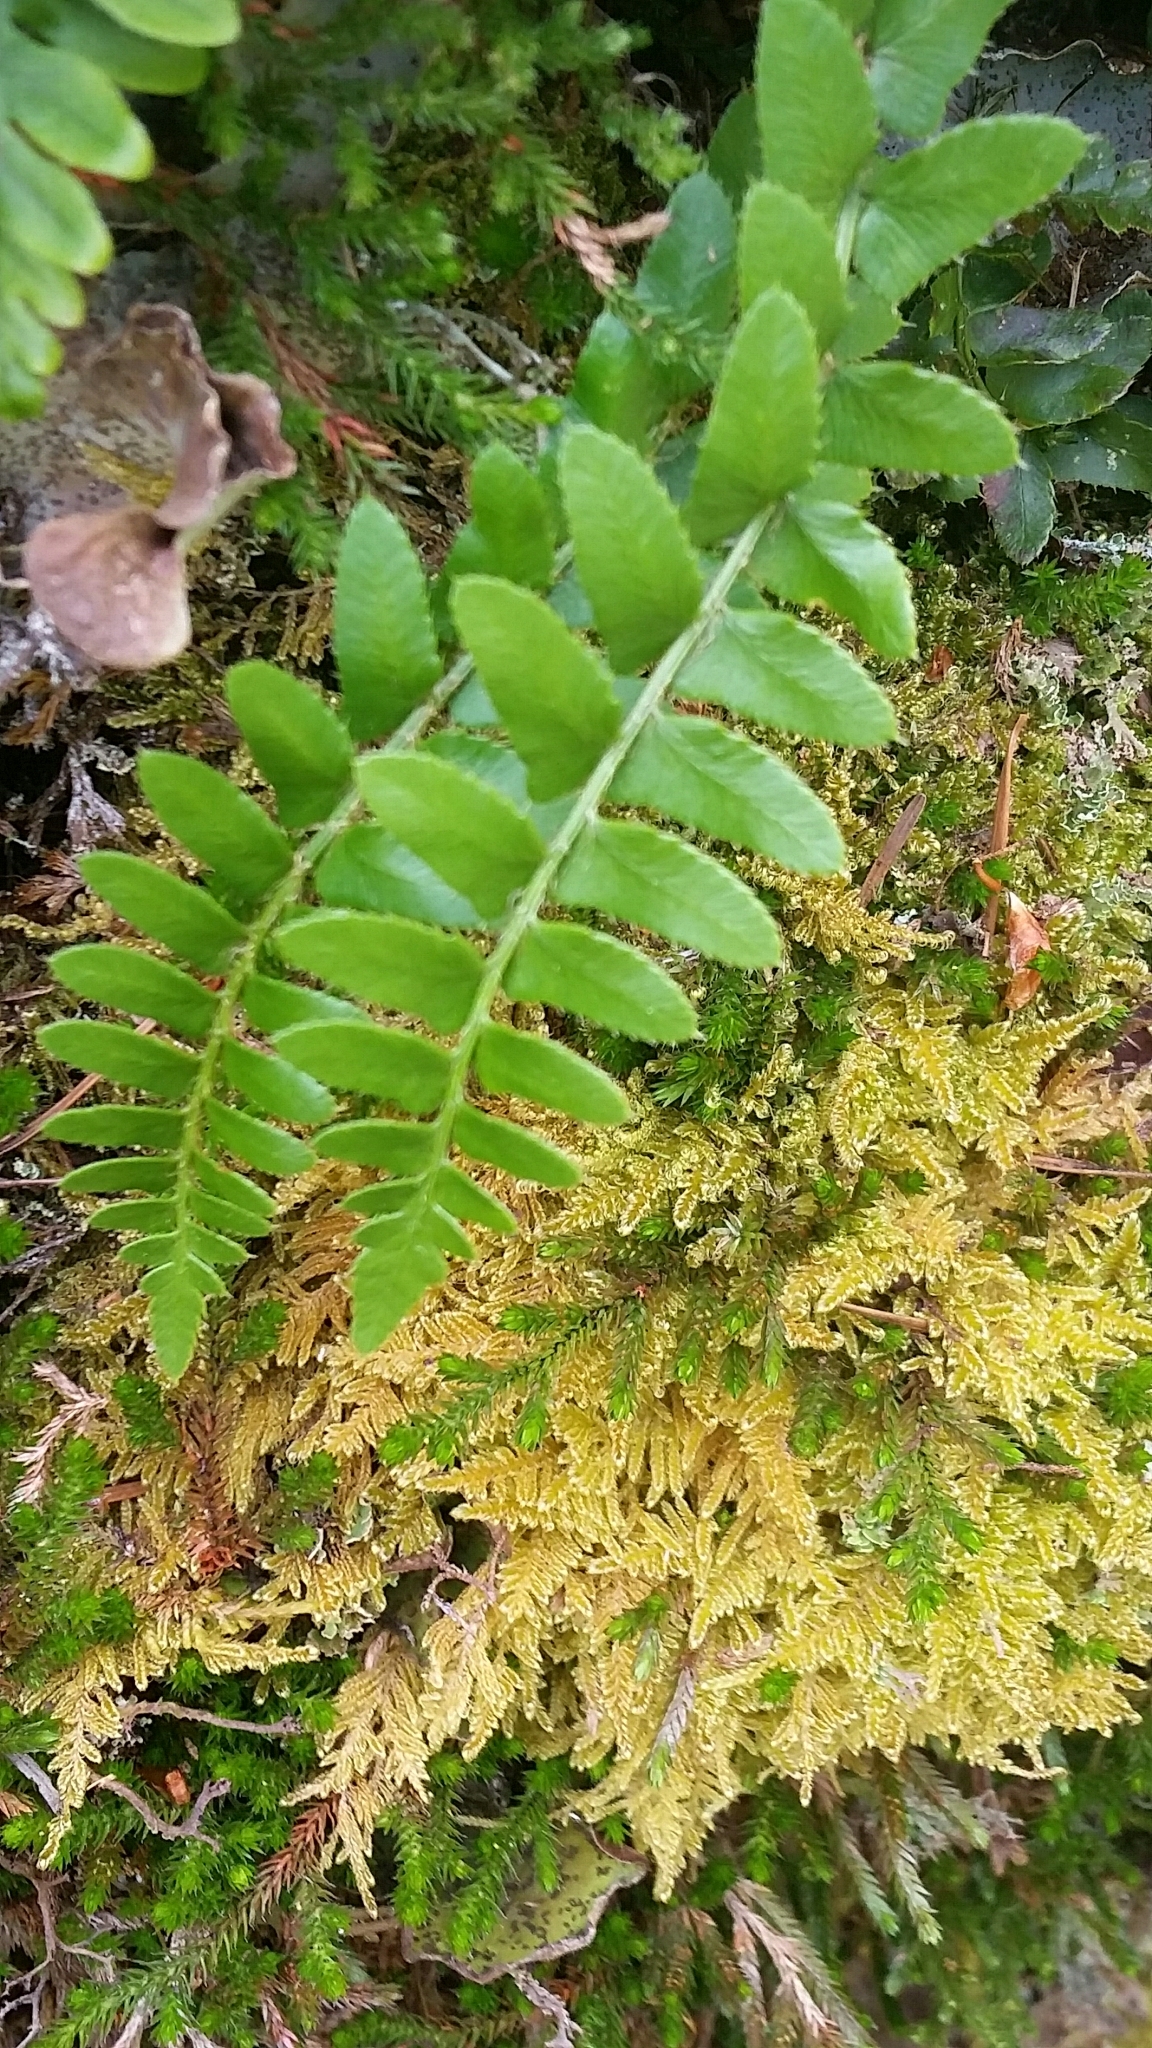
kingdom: Plantae
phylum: Tracheophyta
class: Polypodiopsida
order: Polypodiales
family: Dryopteridaceae
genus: Polystichum
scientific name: Polystichum imbricans
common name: Dwarf western sword fern
